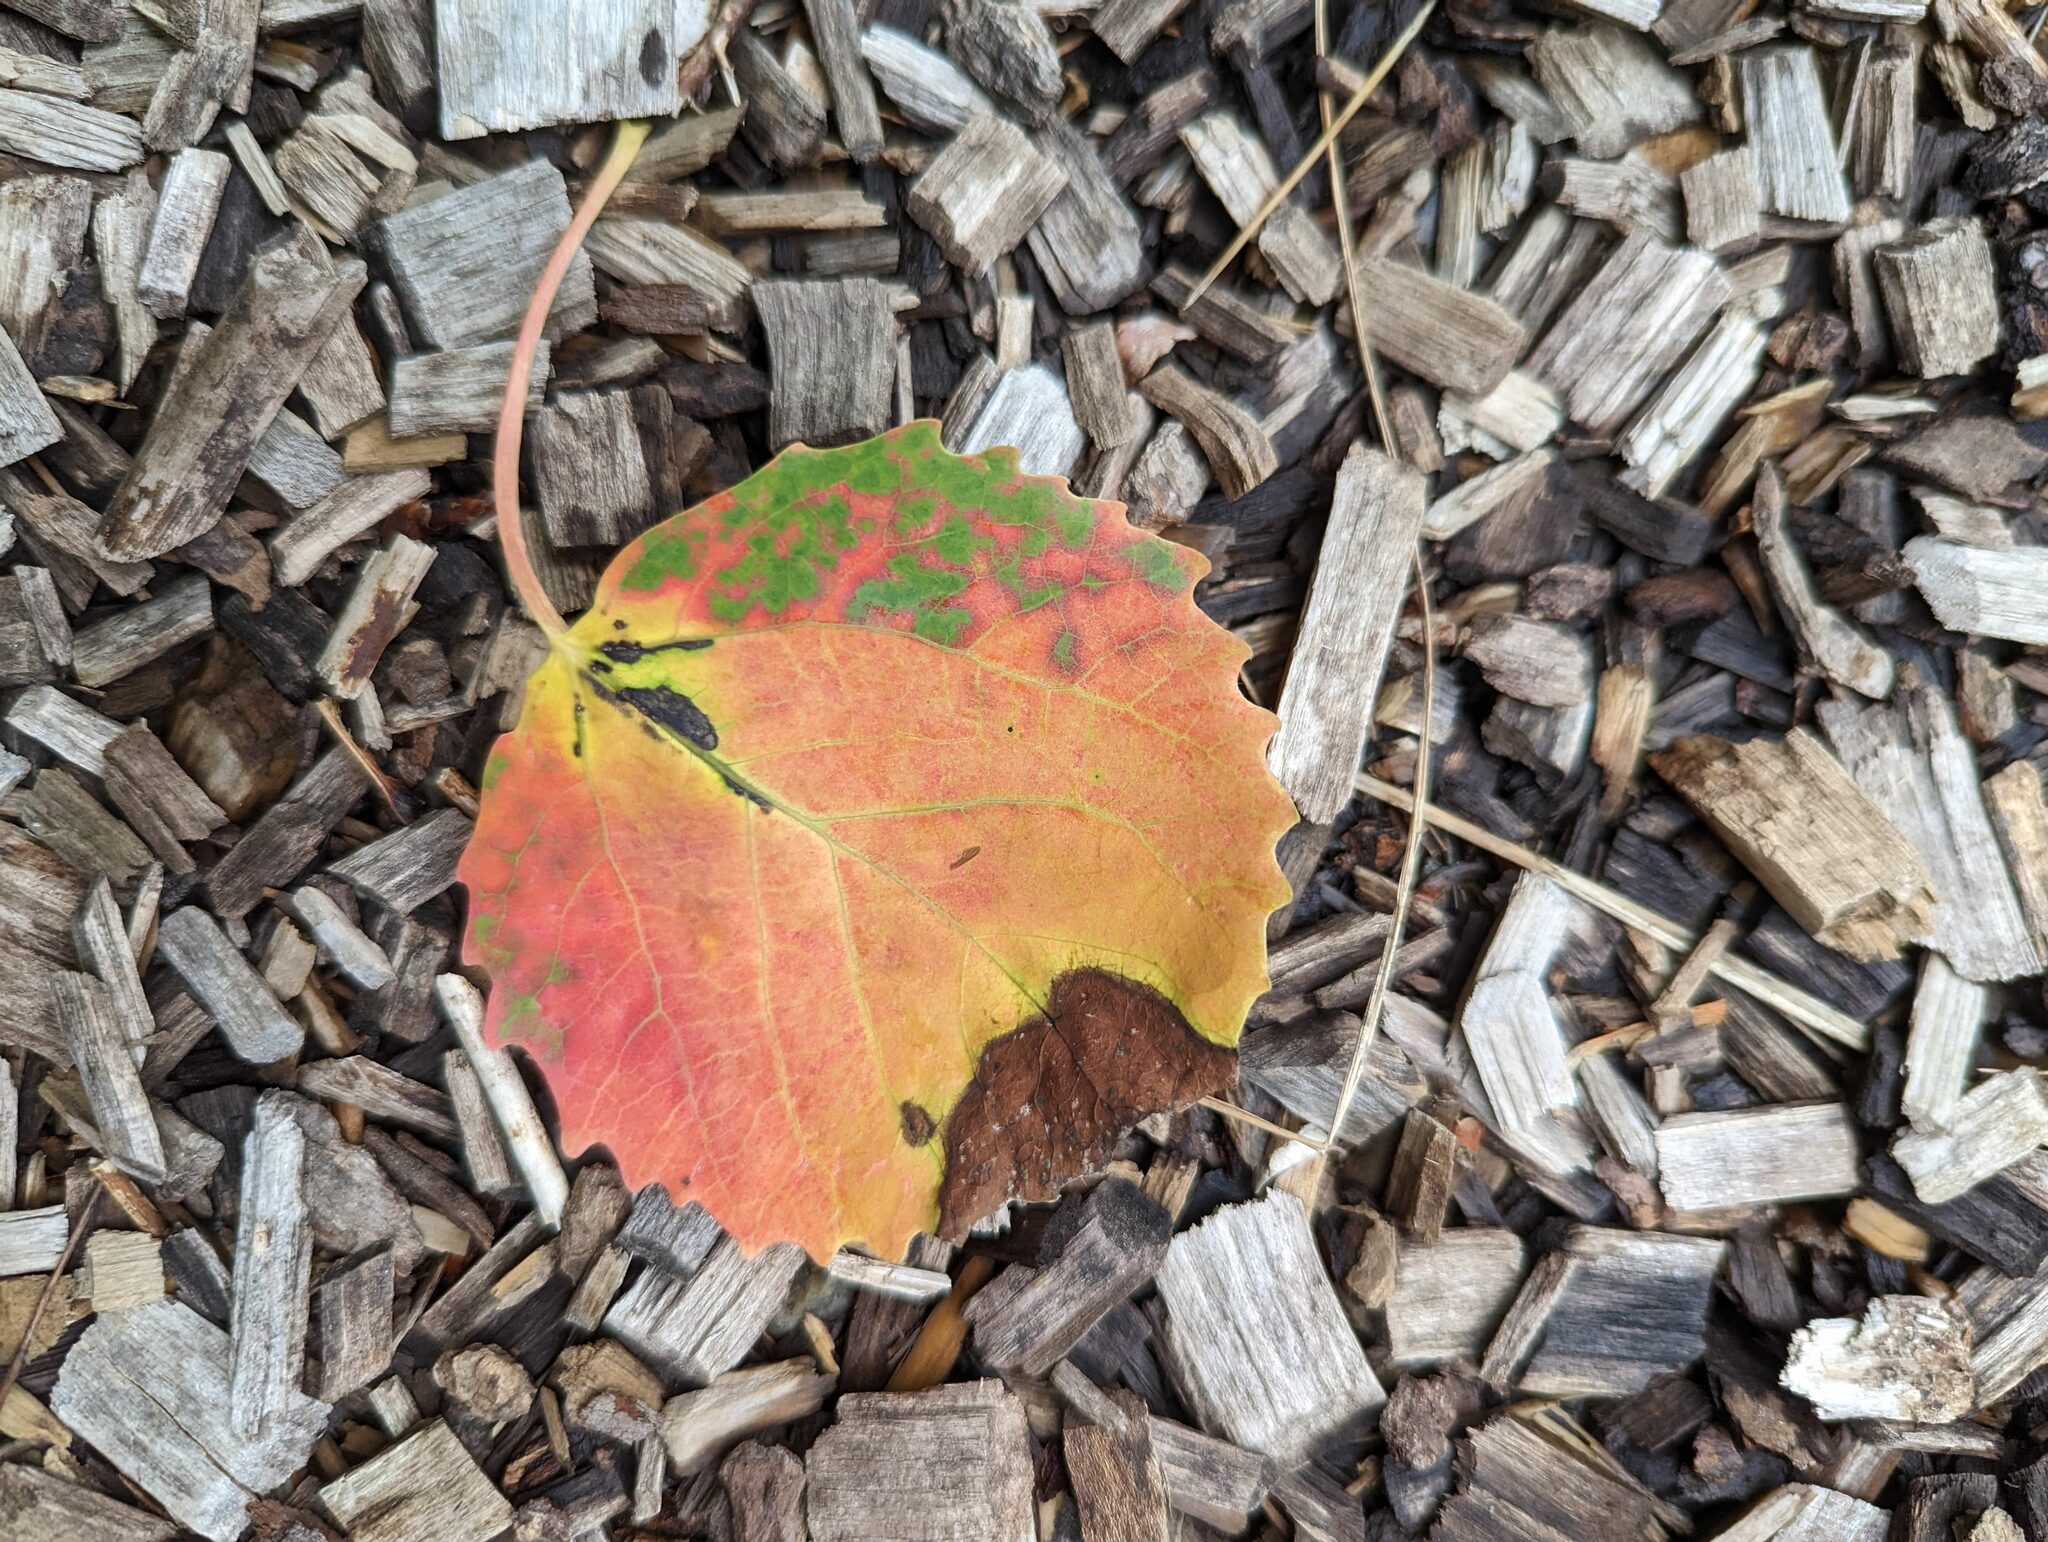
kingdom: Plantae
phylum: Tracheophyta
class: Magnoliopsida
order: Malpighiales
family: Salicaceae
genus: Populus
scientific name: Populus grandidentata
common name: Bigtooth aspen
